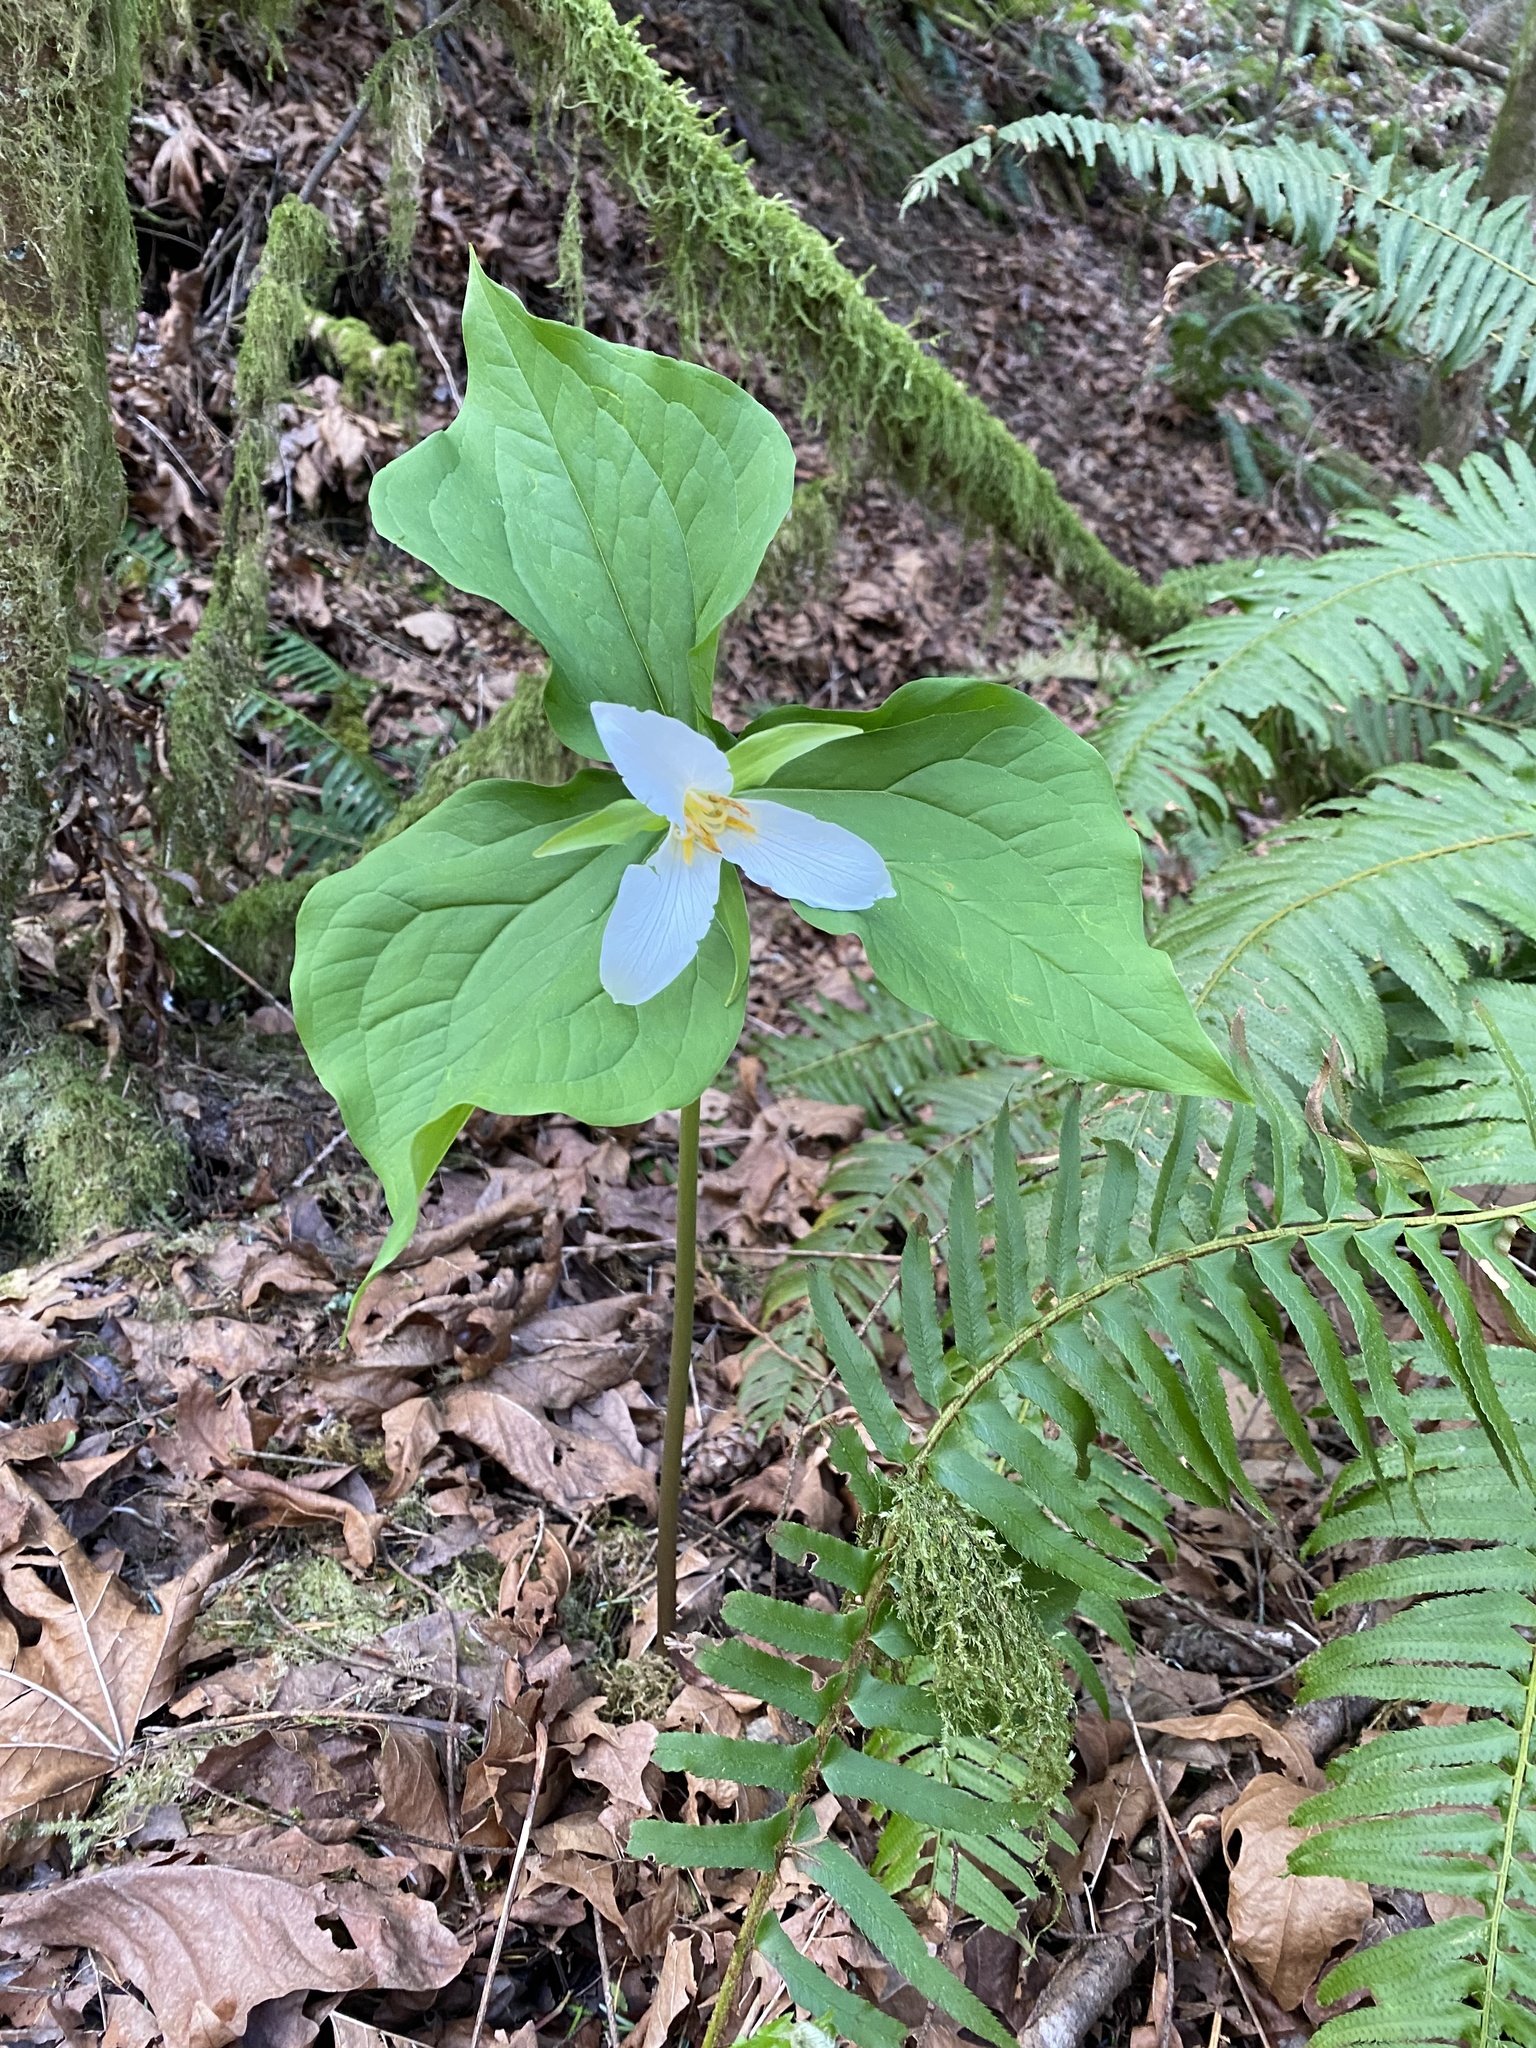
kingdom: Plantae
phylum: Tracheophyta
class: Liliopsida
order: Liliales
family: Melanthiaceae
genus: Trillium
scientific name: Trillium ovatum
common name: Pacific trillium
